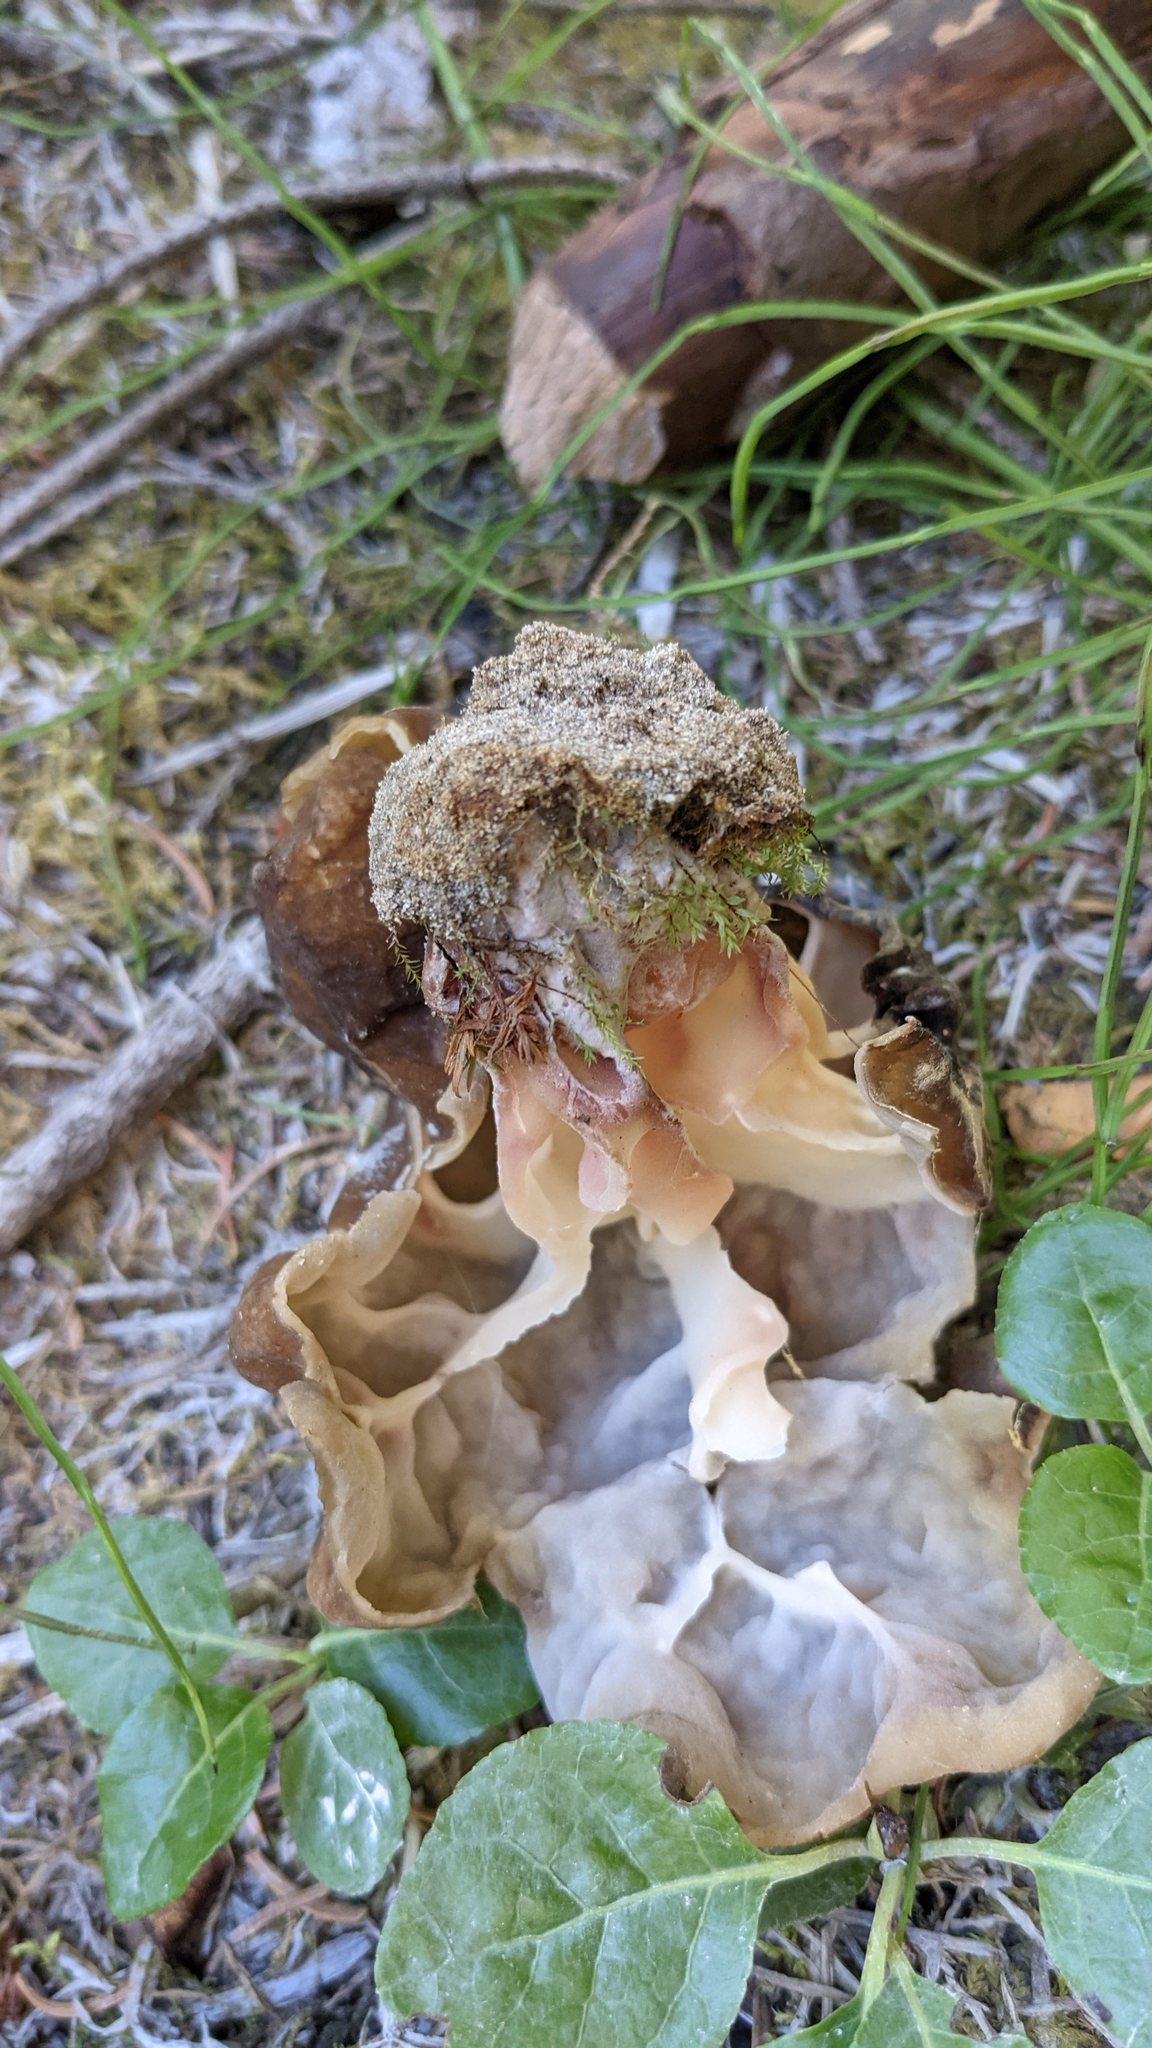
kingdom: Fungi
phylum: Ascomycota
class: Pezizomycetes
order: Pezizales
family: Discinaceae
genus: Gyromitra
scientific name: Gyromitra californica
